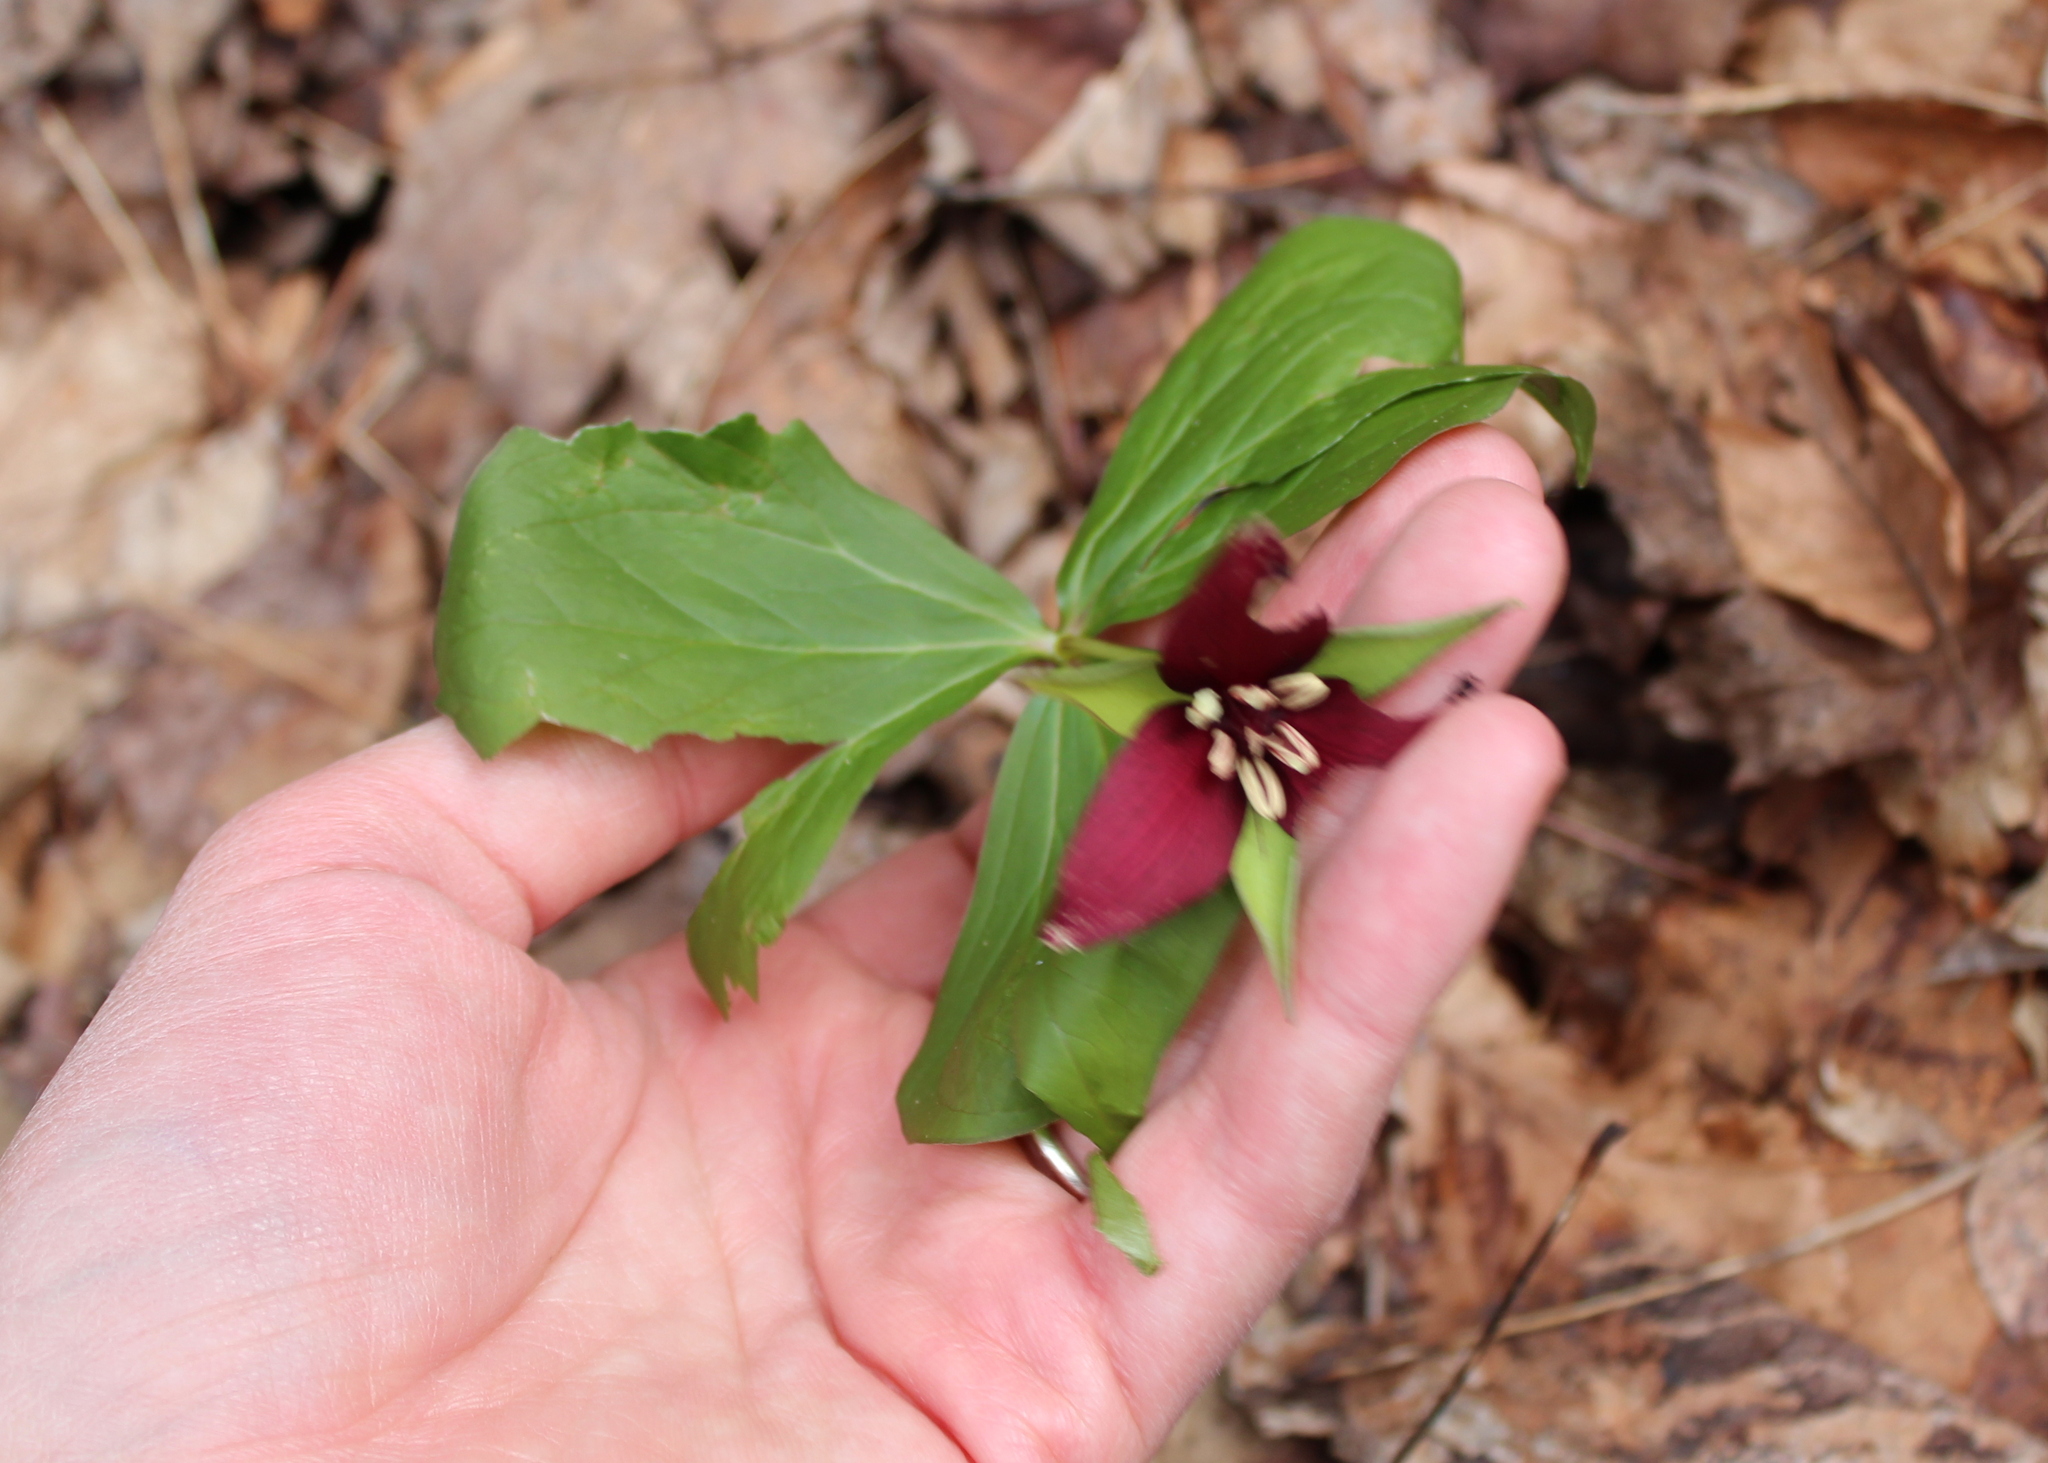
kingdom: Plantae
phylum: Tracheophyta
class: Liliopsida
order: Liliales
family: Melanthiaceae
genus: Trillium
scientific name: Trillium erectum
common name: Purple trillium
